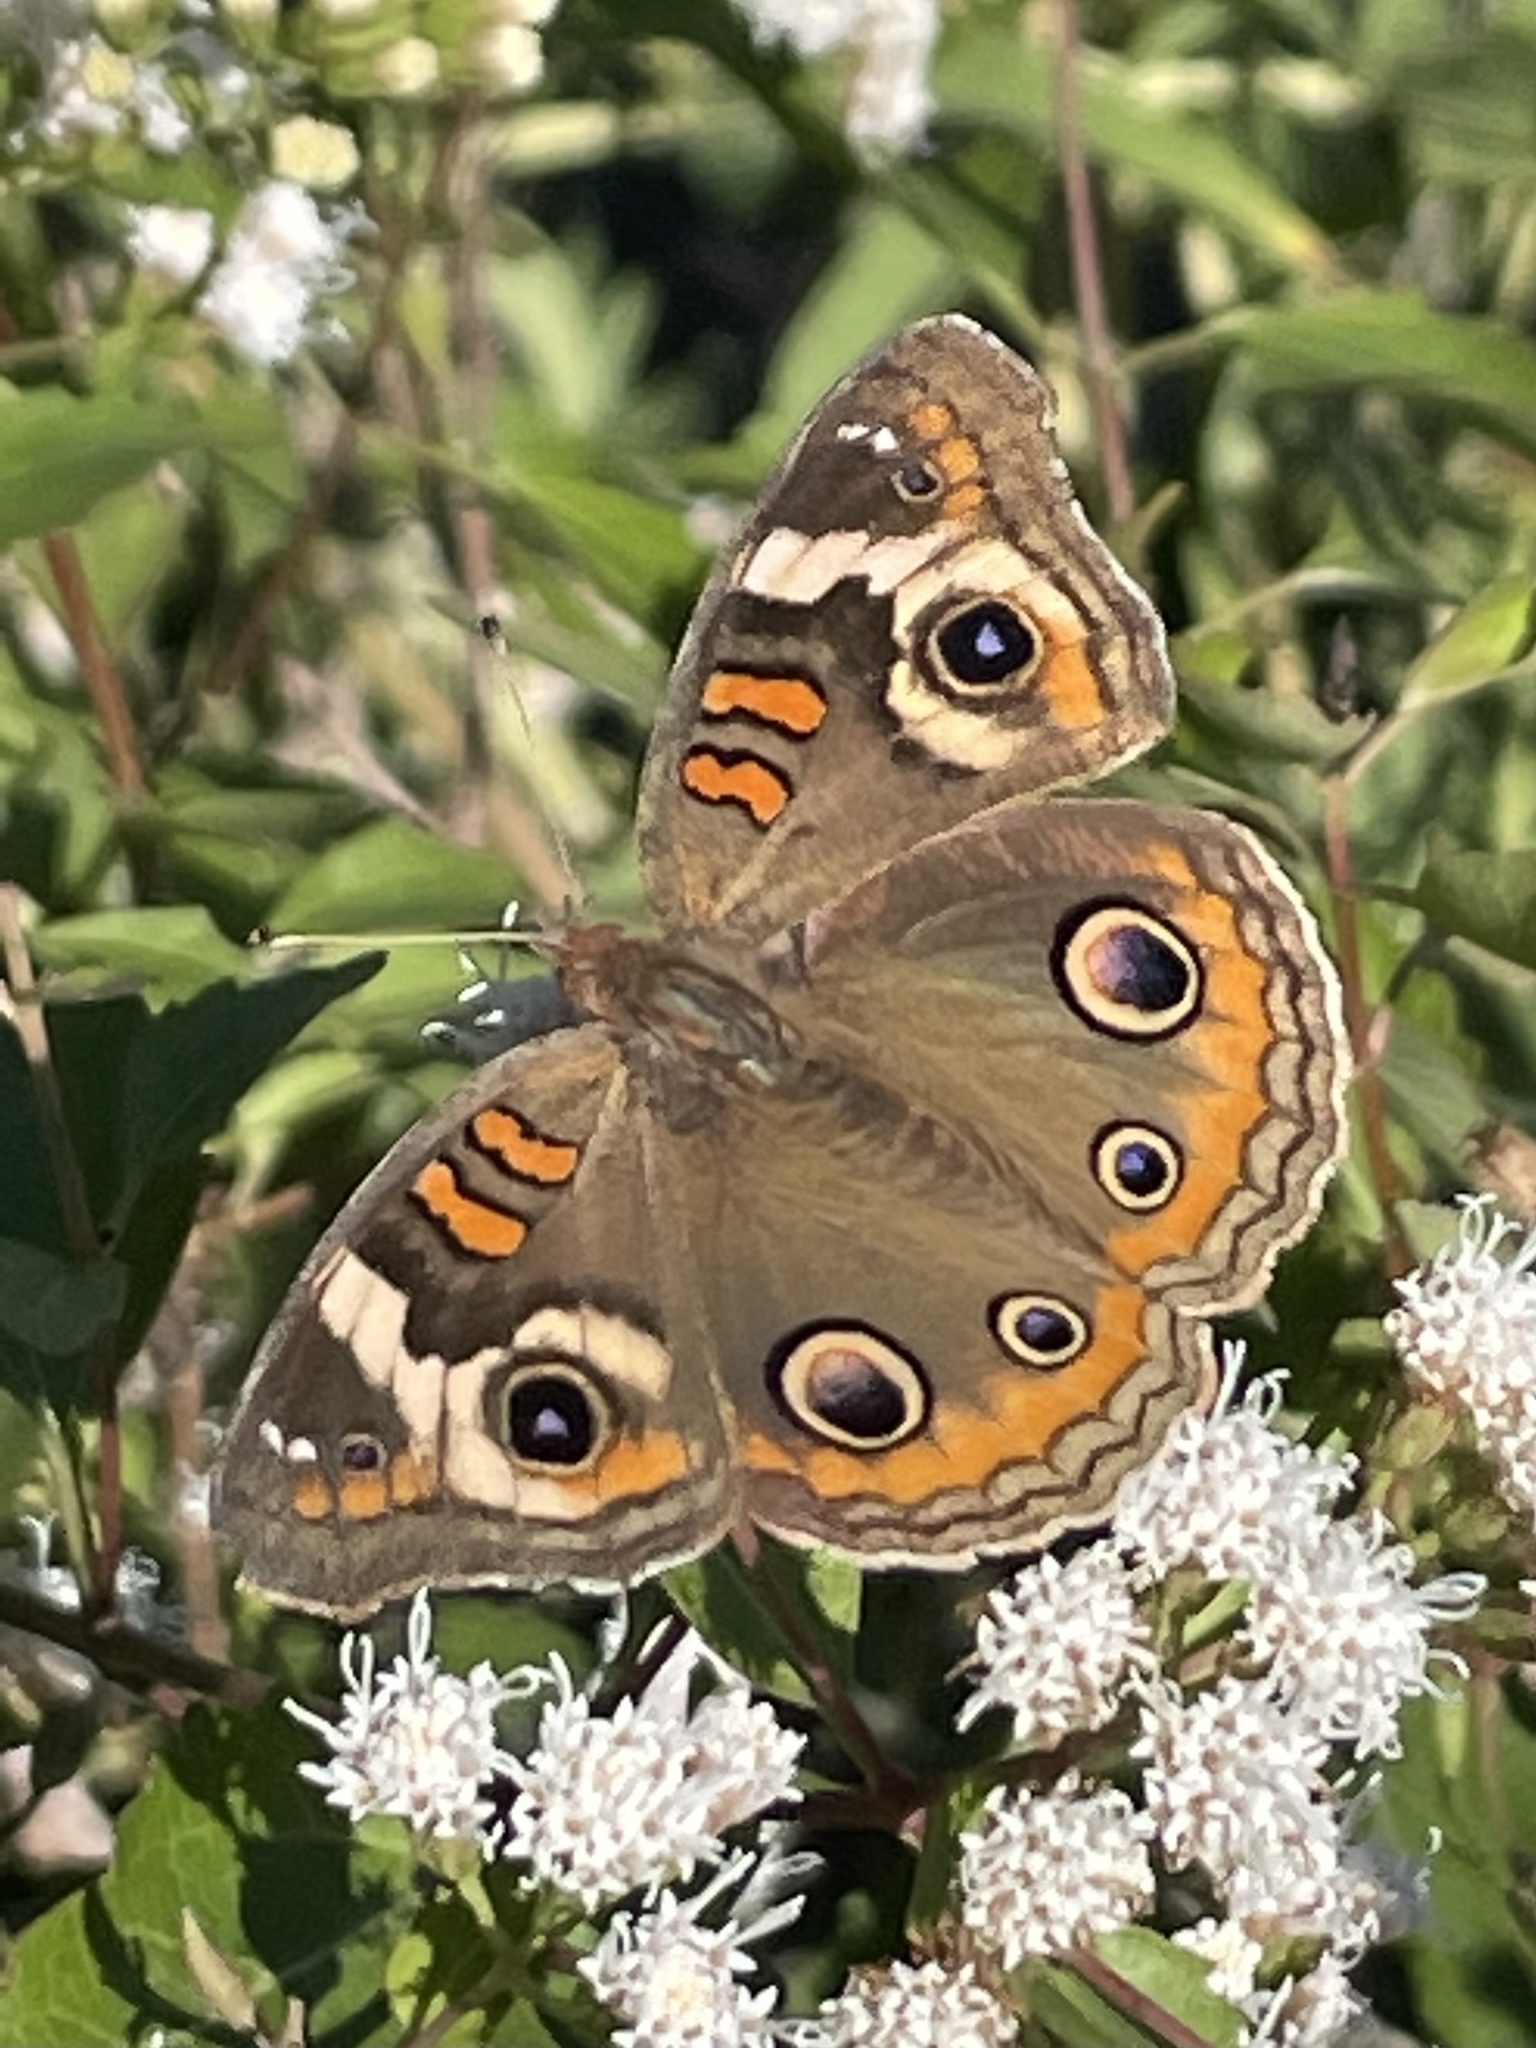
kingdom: Animalia
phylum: Arthropoda
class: Insecta
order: Lepidoptera
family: Nymphalidae
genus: Junonia
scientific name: Junonia coenia
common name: Common buckeye
